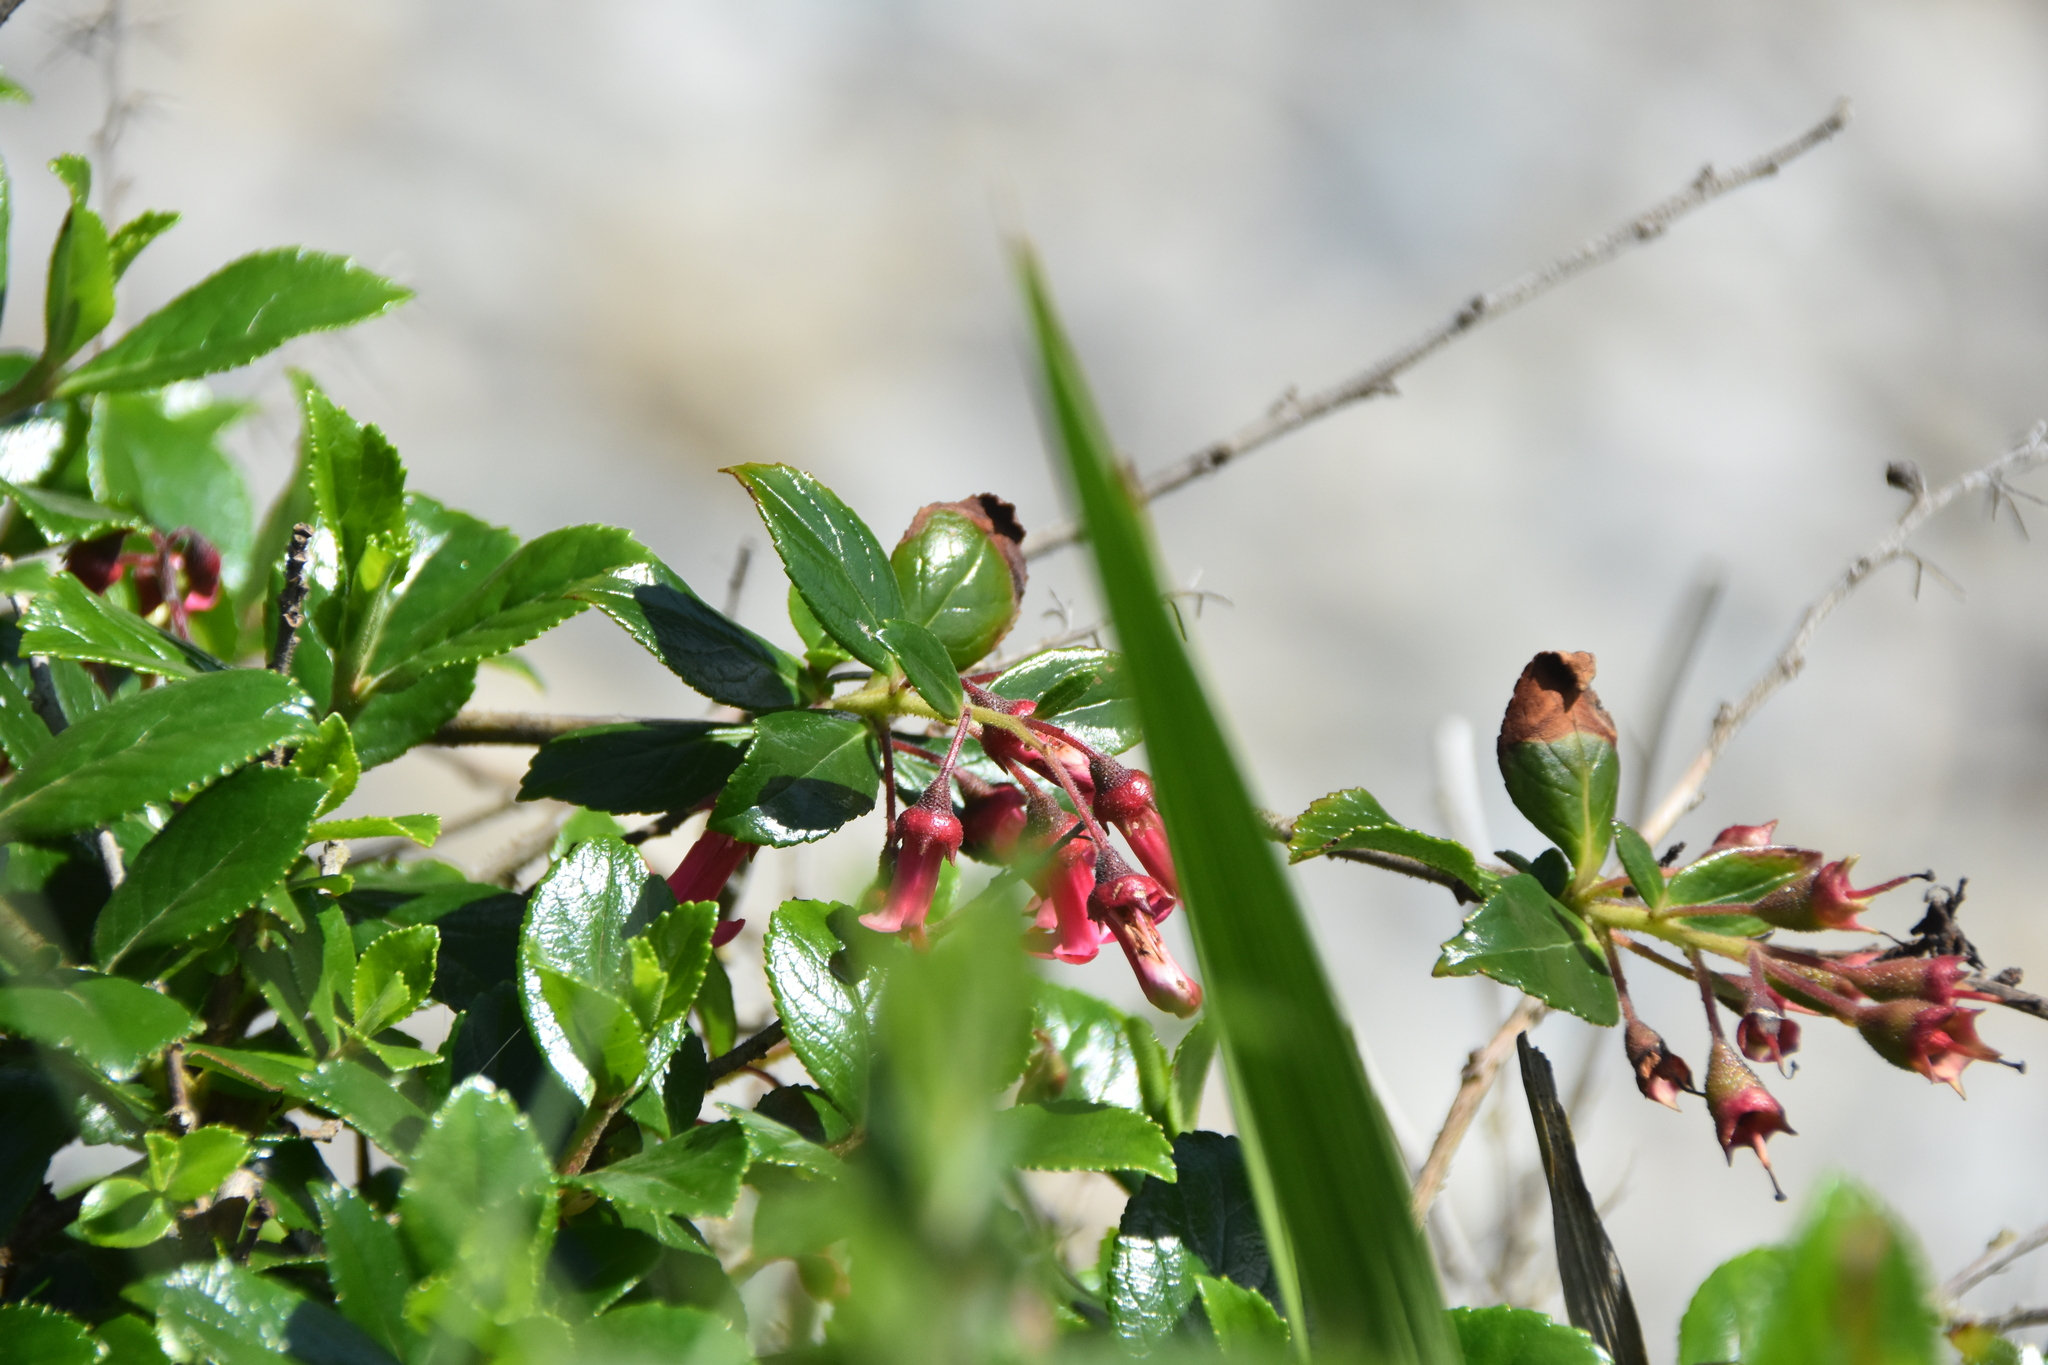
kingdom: Plantae
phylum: Tracheophyta
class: Magnoliopsida
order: Escalloniales
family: Escalloniaceae
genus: Escallonia
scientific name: Escallonia rubra
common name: Redclaws
